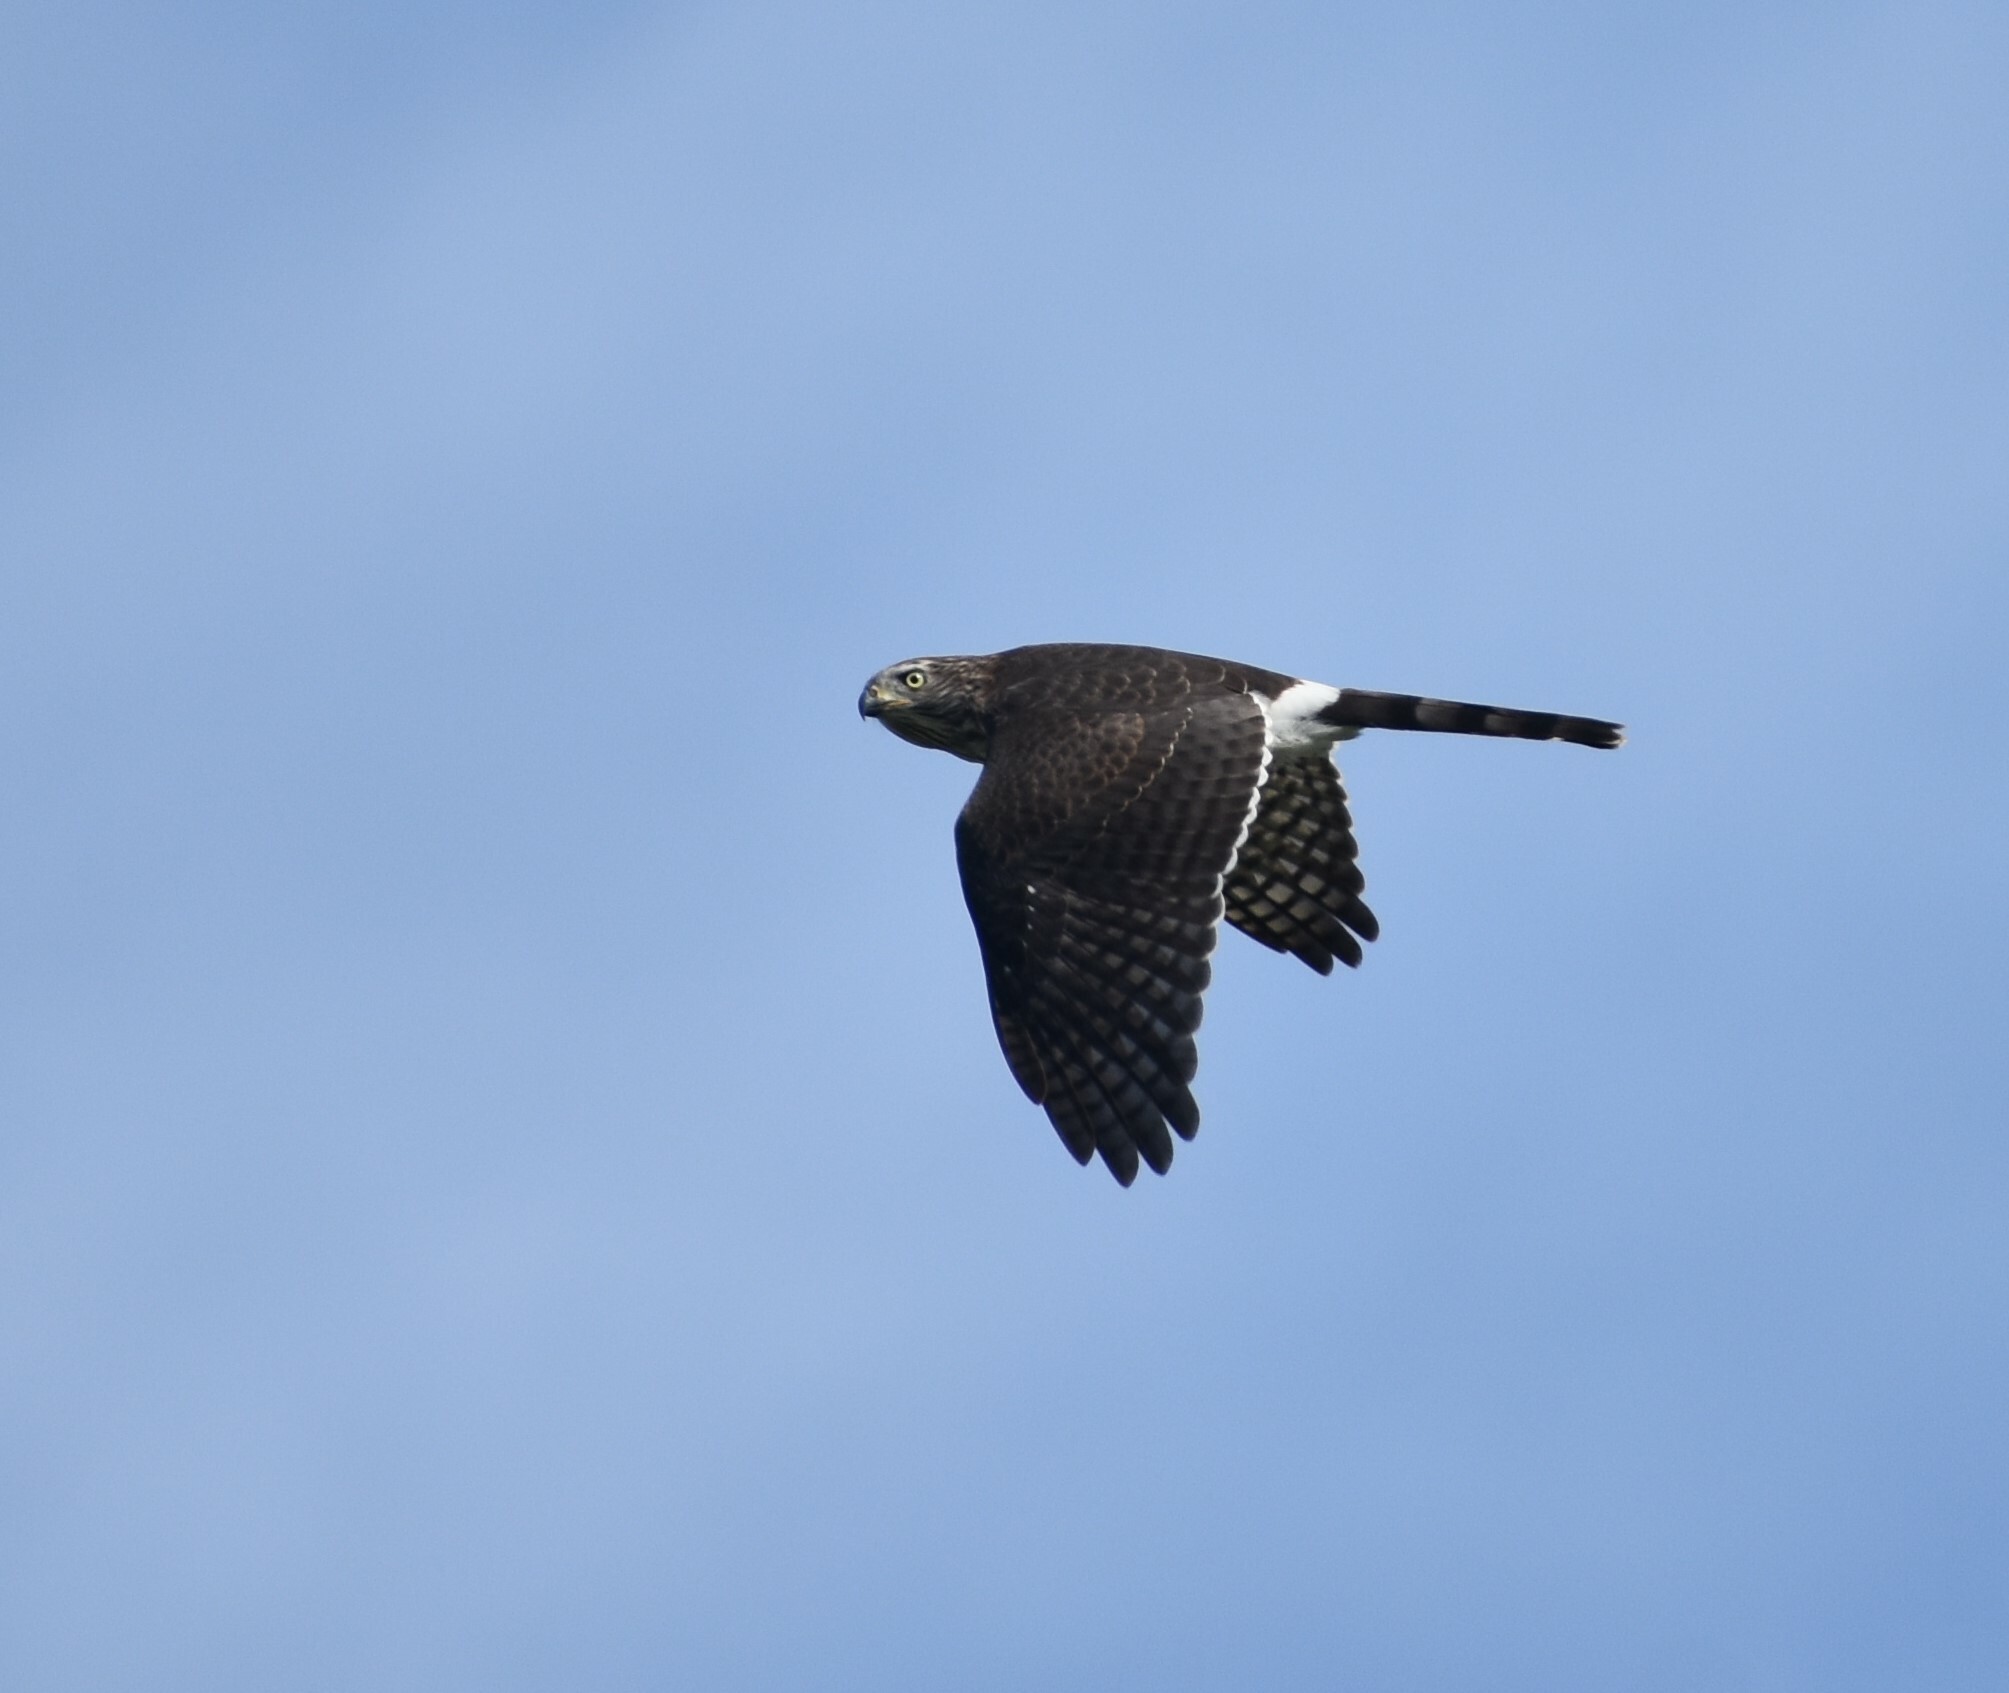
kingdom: Animalia
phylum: Chordata
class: Aves
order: Accipitriformes
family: Accipitridae
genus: Micronisus
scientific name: Micronisus gabar
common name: Gabar goshawk
